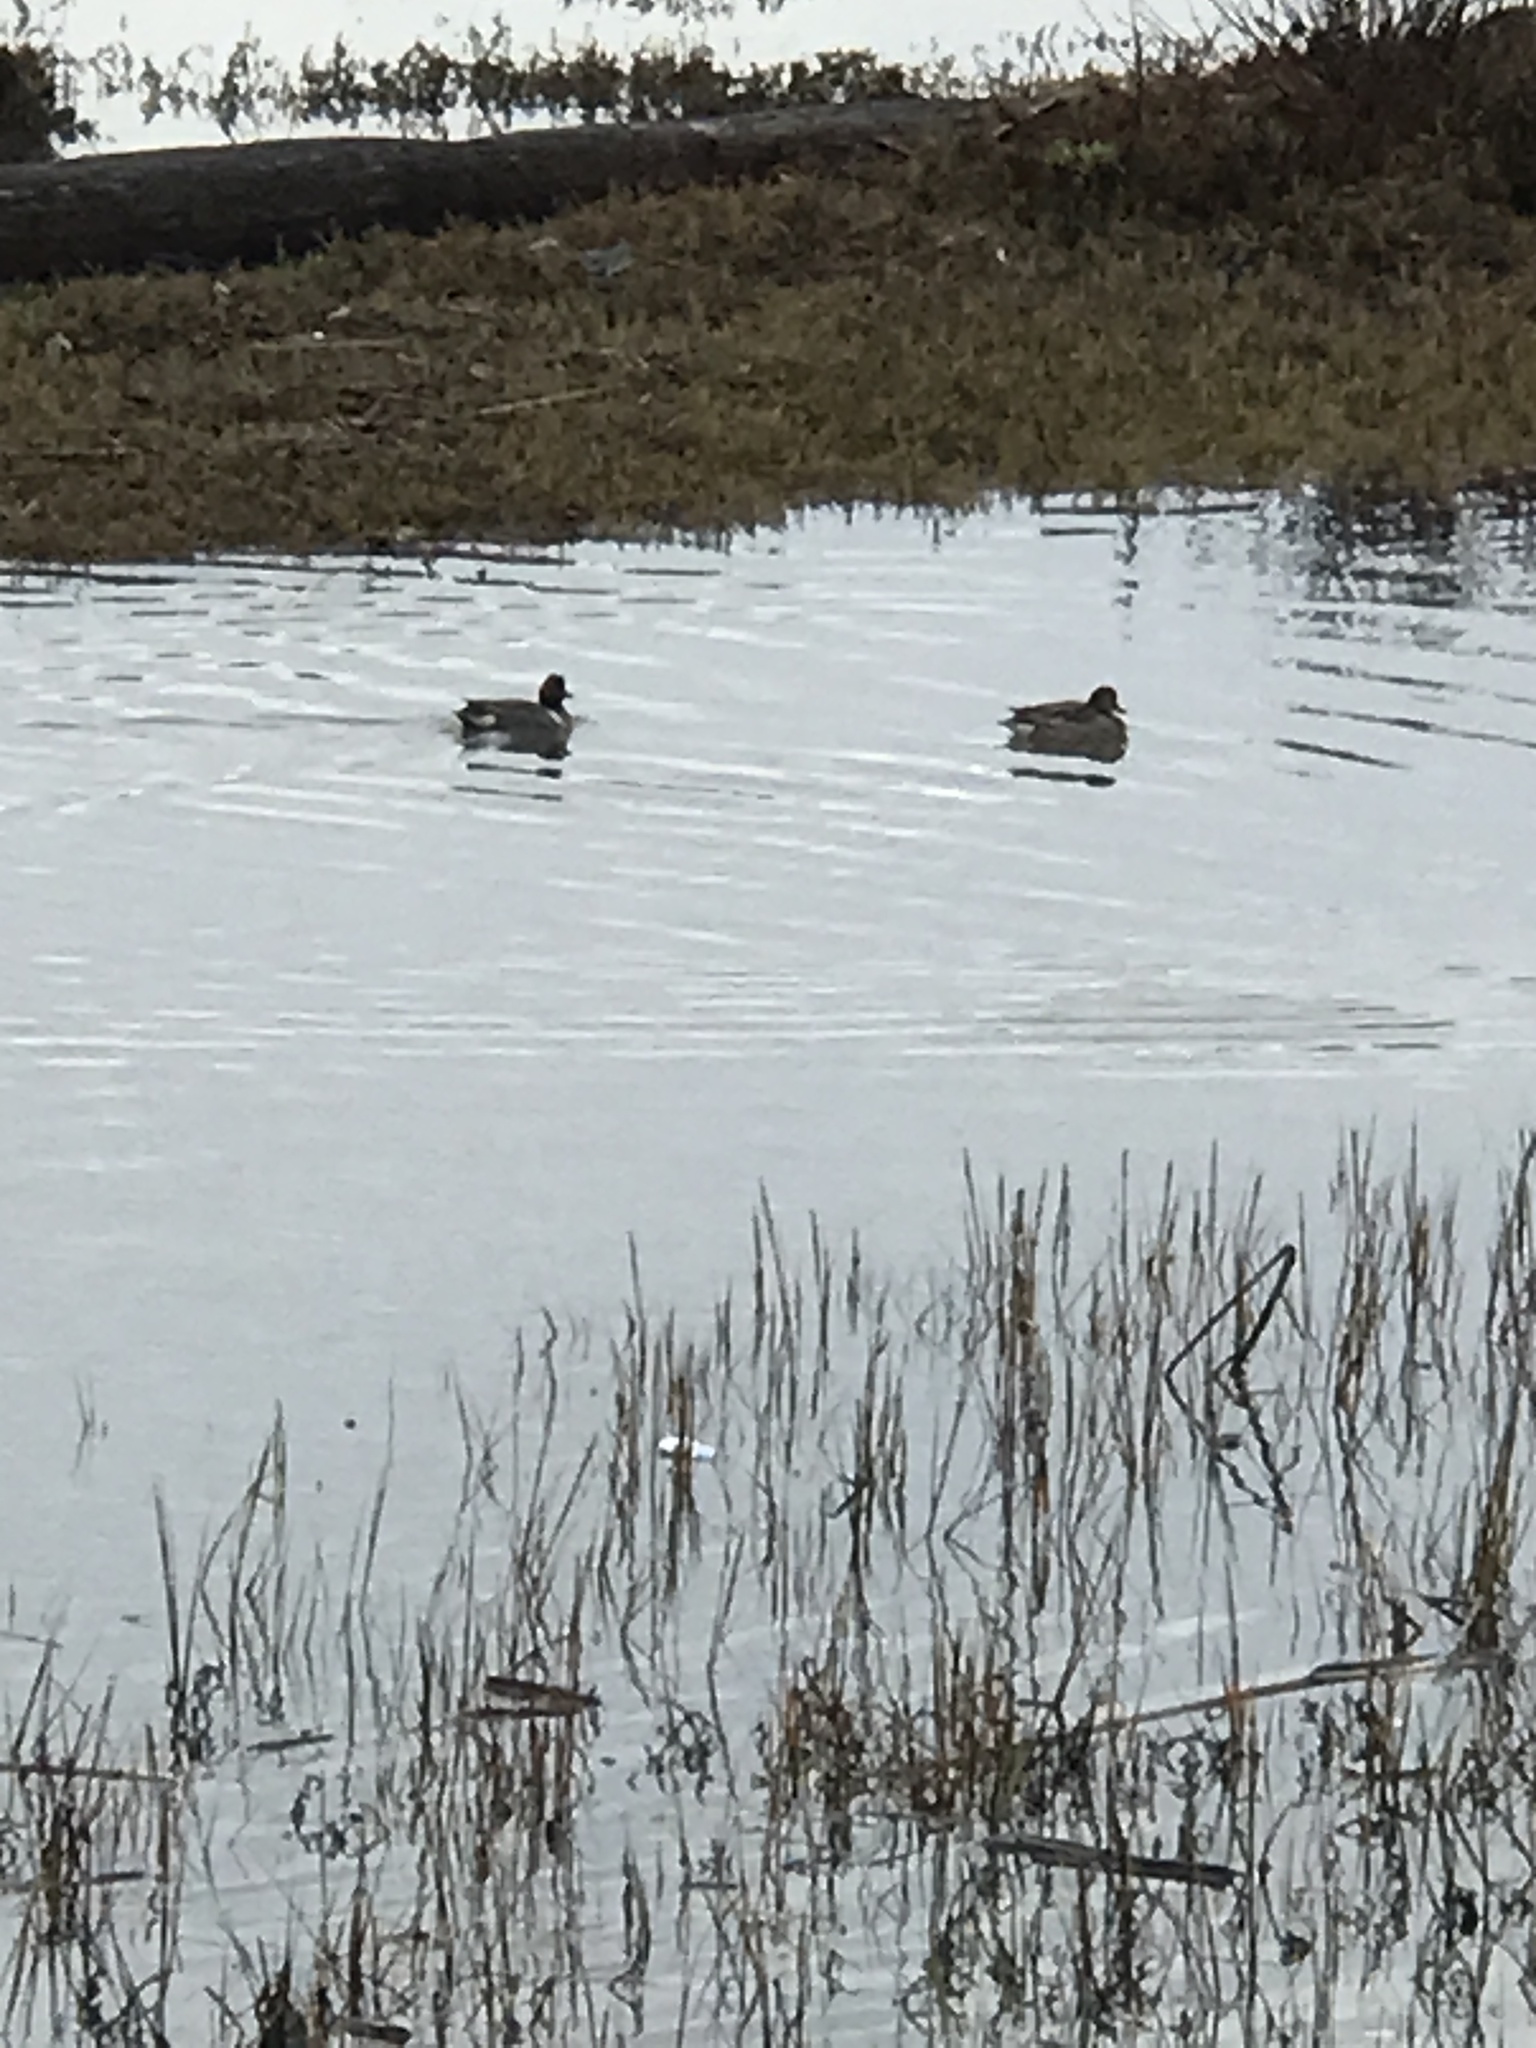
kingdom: Animalia
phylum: Chordata
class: Aves
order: Anseriformes
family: Anatidae
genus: Anas
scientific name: Anas crecca
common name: Eurasian teal
